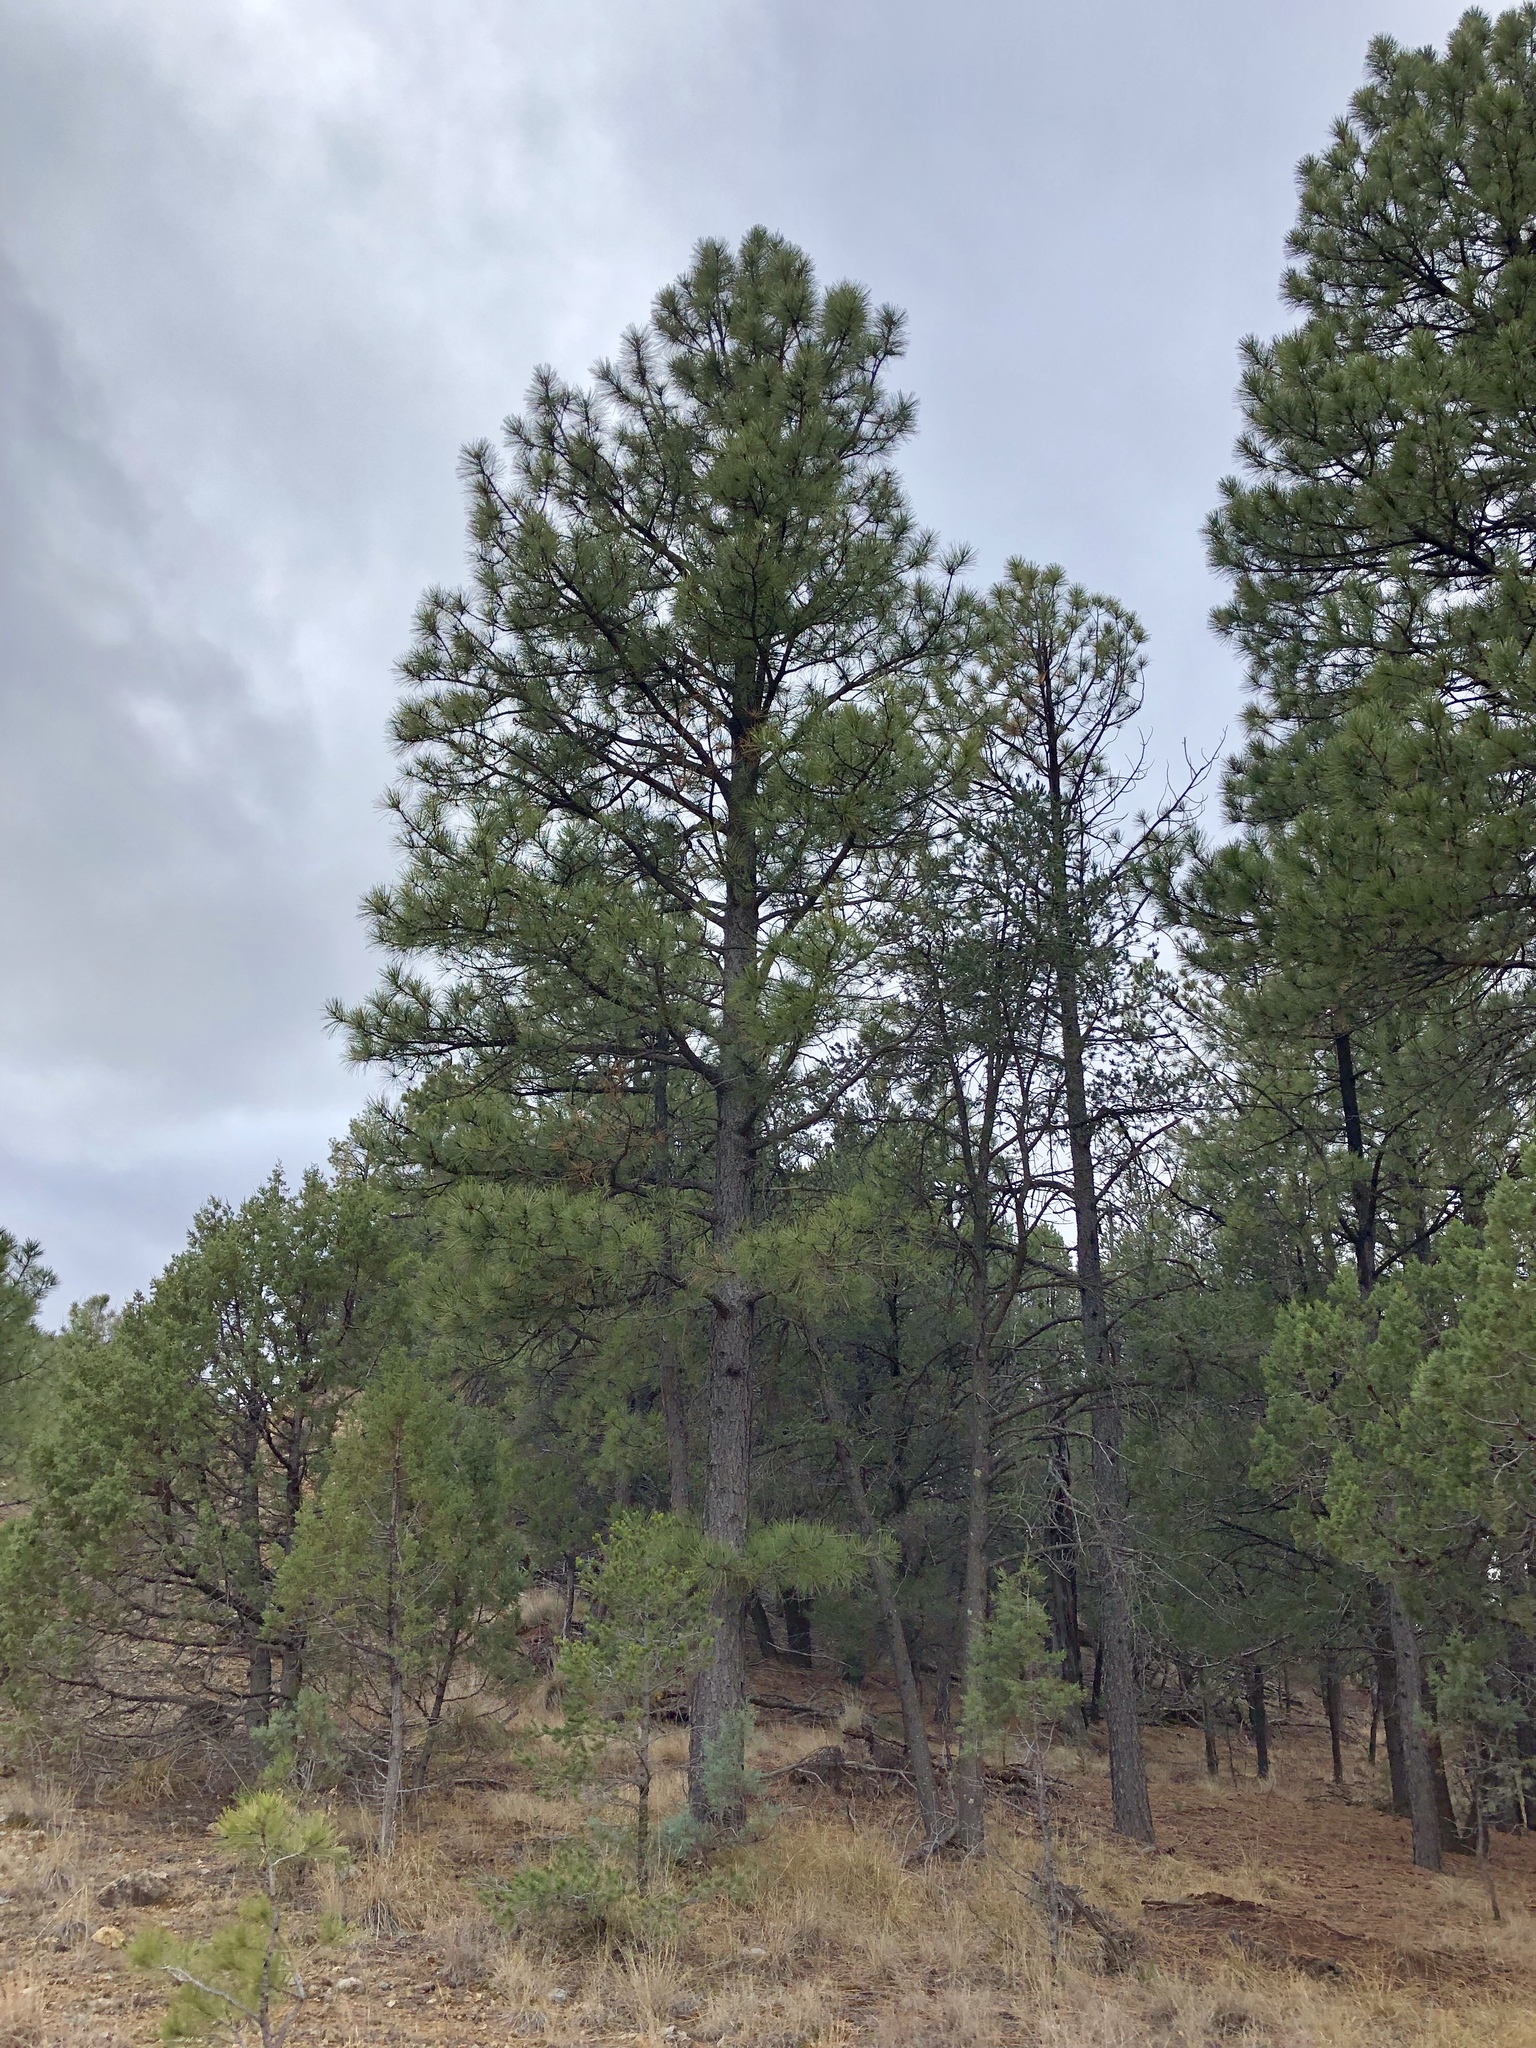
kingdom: Plantae
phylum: Tracheophyta
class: Pinopsida
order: Pinales
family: Pinaceae
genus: Pinus
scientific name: Pinus ponderosa
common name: Western yellow-pine
